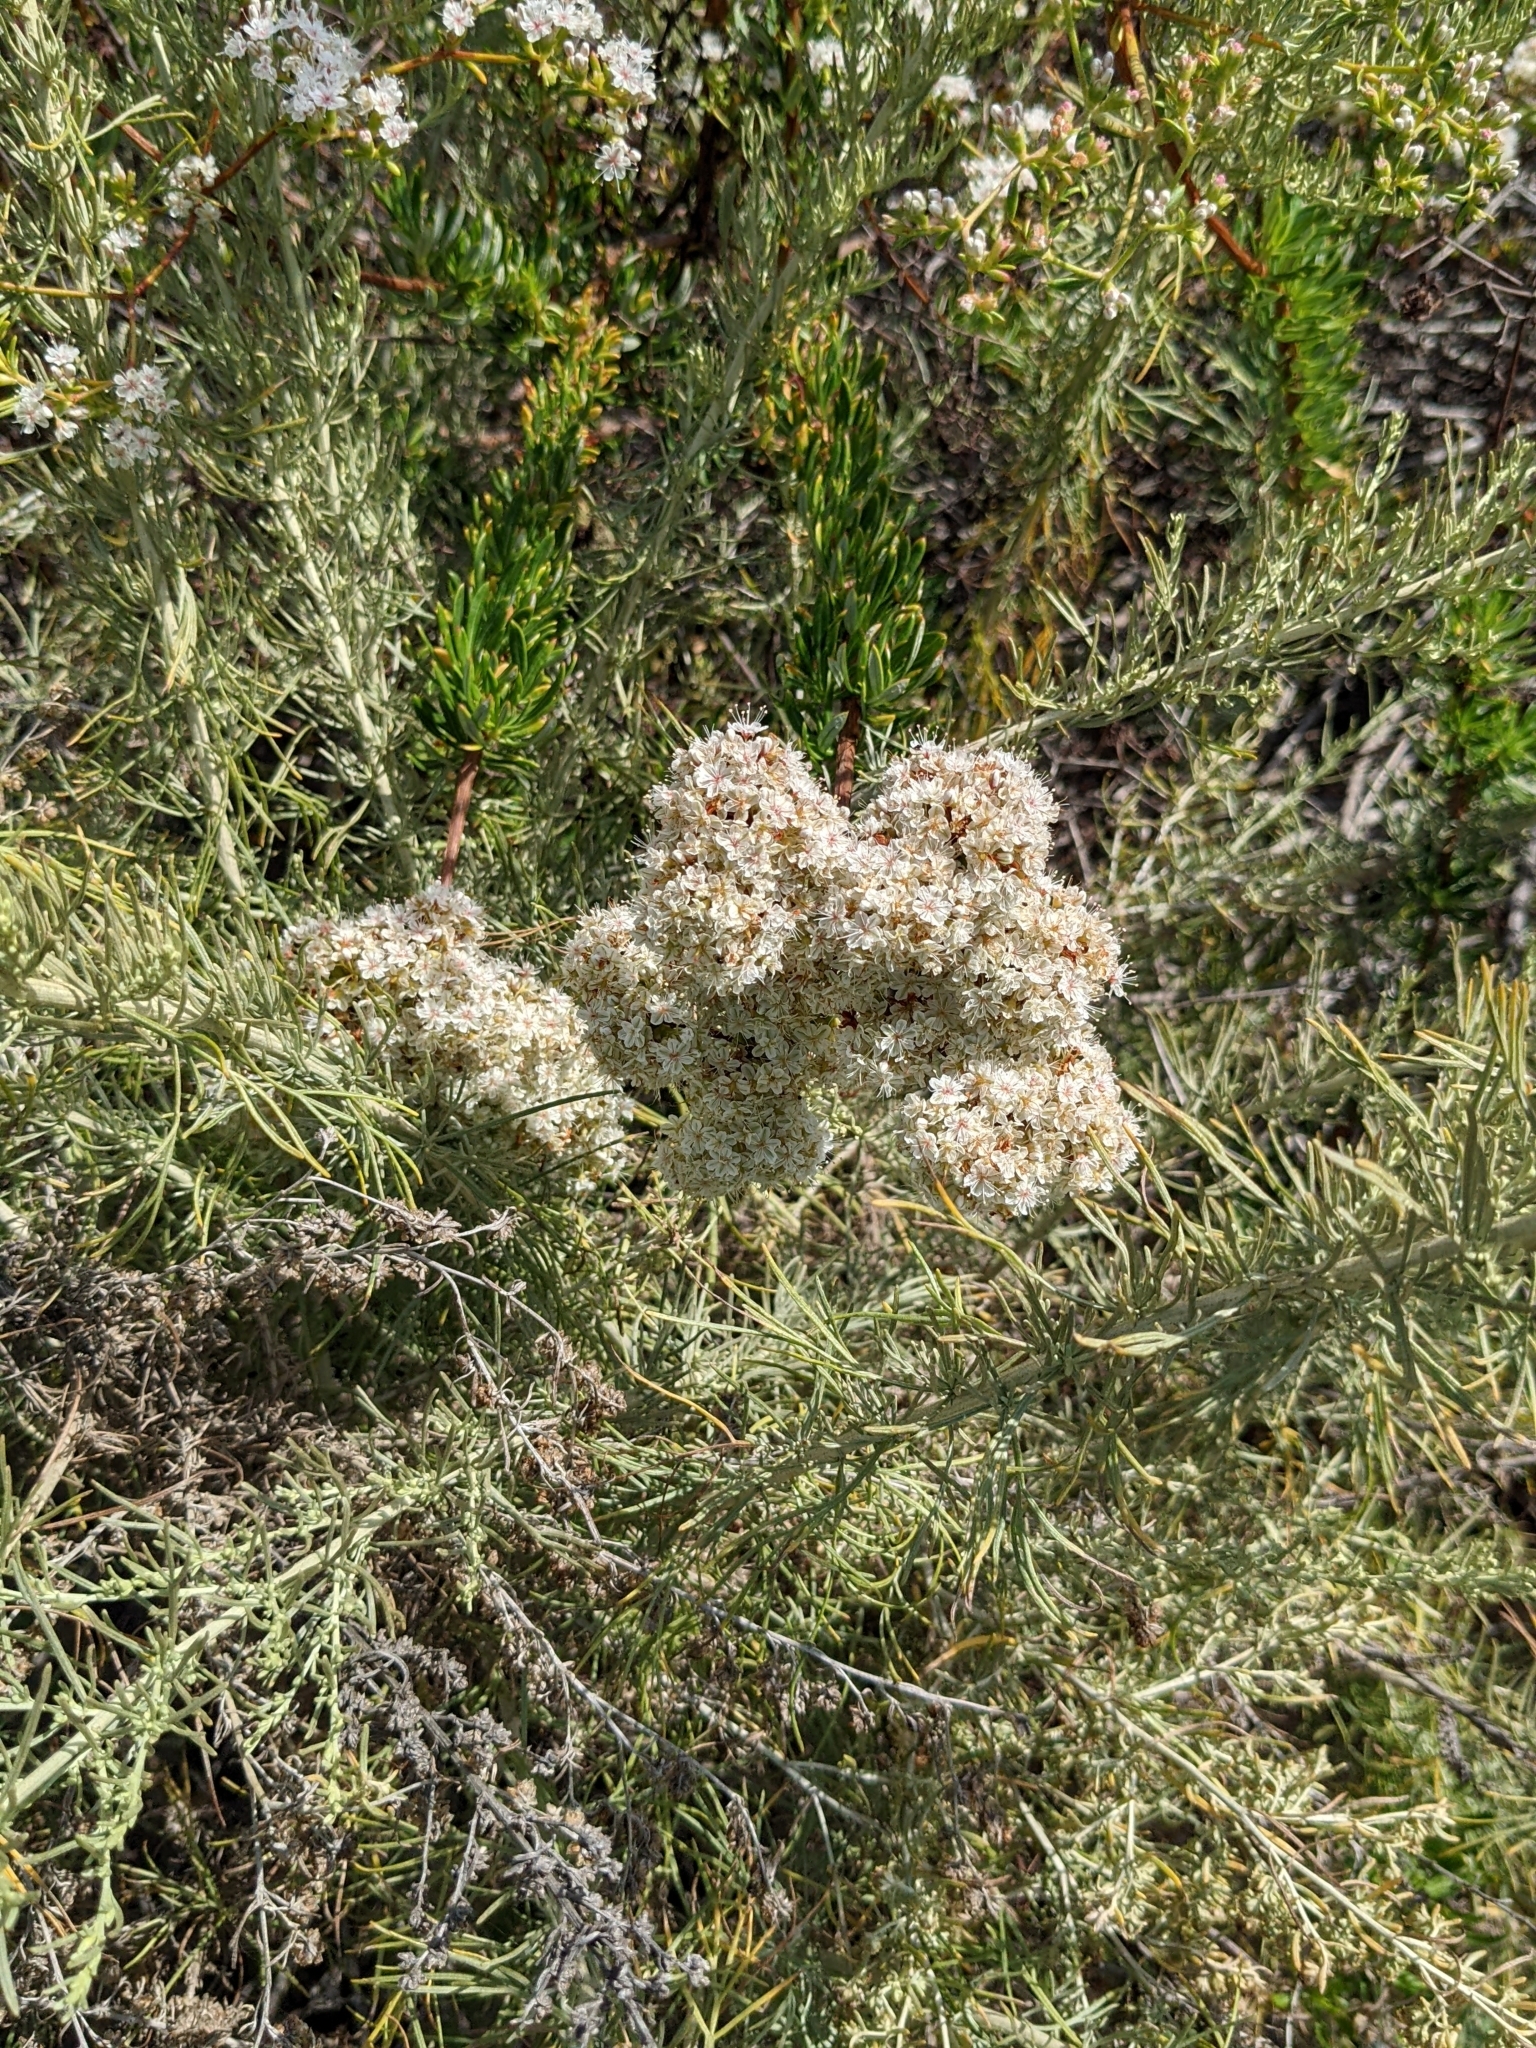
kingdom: Plantae
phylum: Tracheophyta
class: Magnoliopsida
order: Caryophyllales
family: Polygonaceae
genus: Eriogonum
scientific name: Eriogonum fasciculatum
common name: California wild buckwheat
